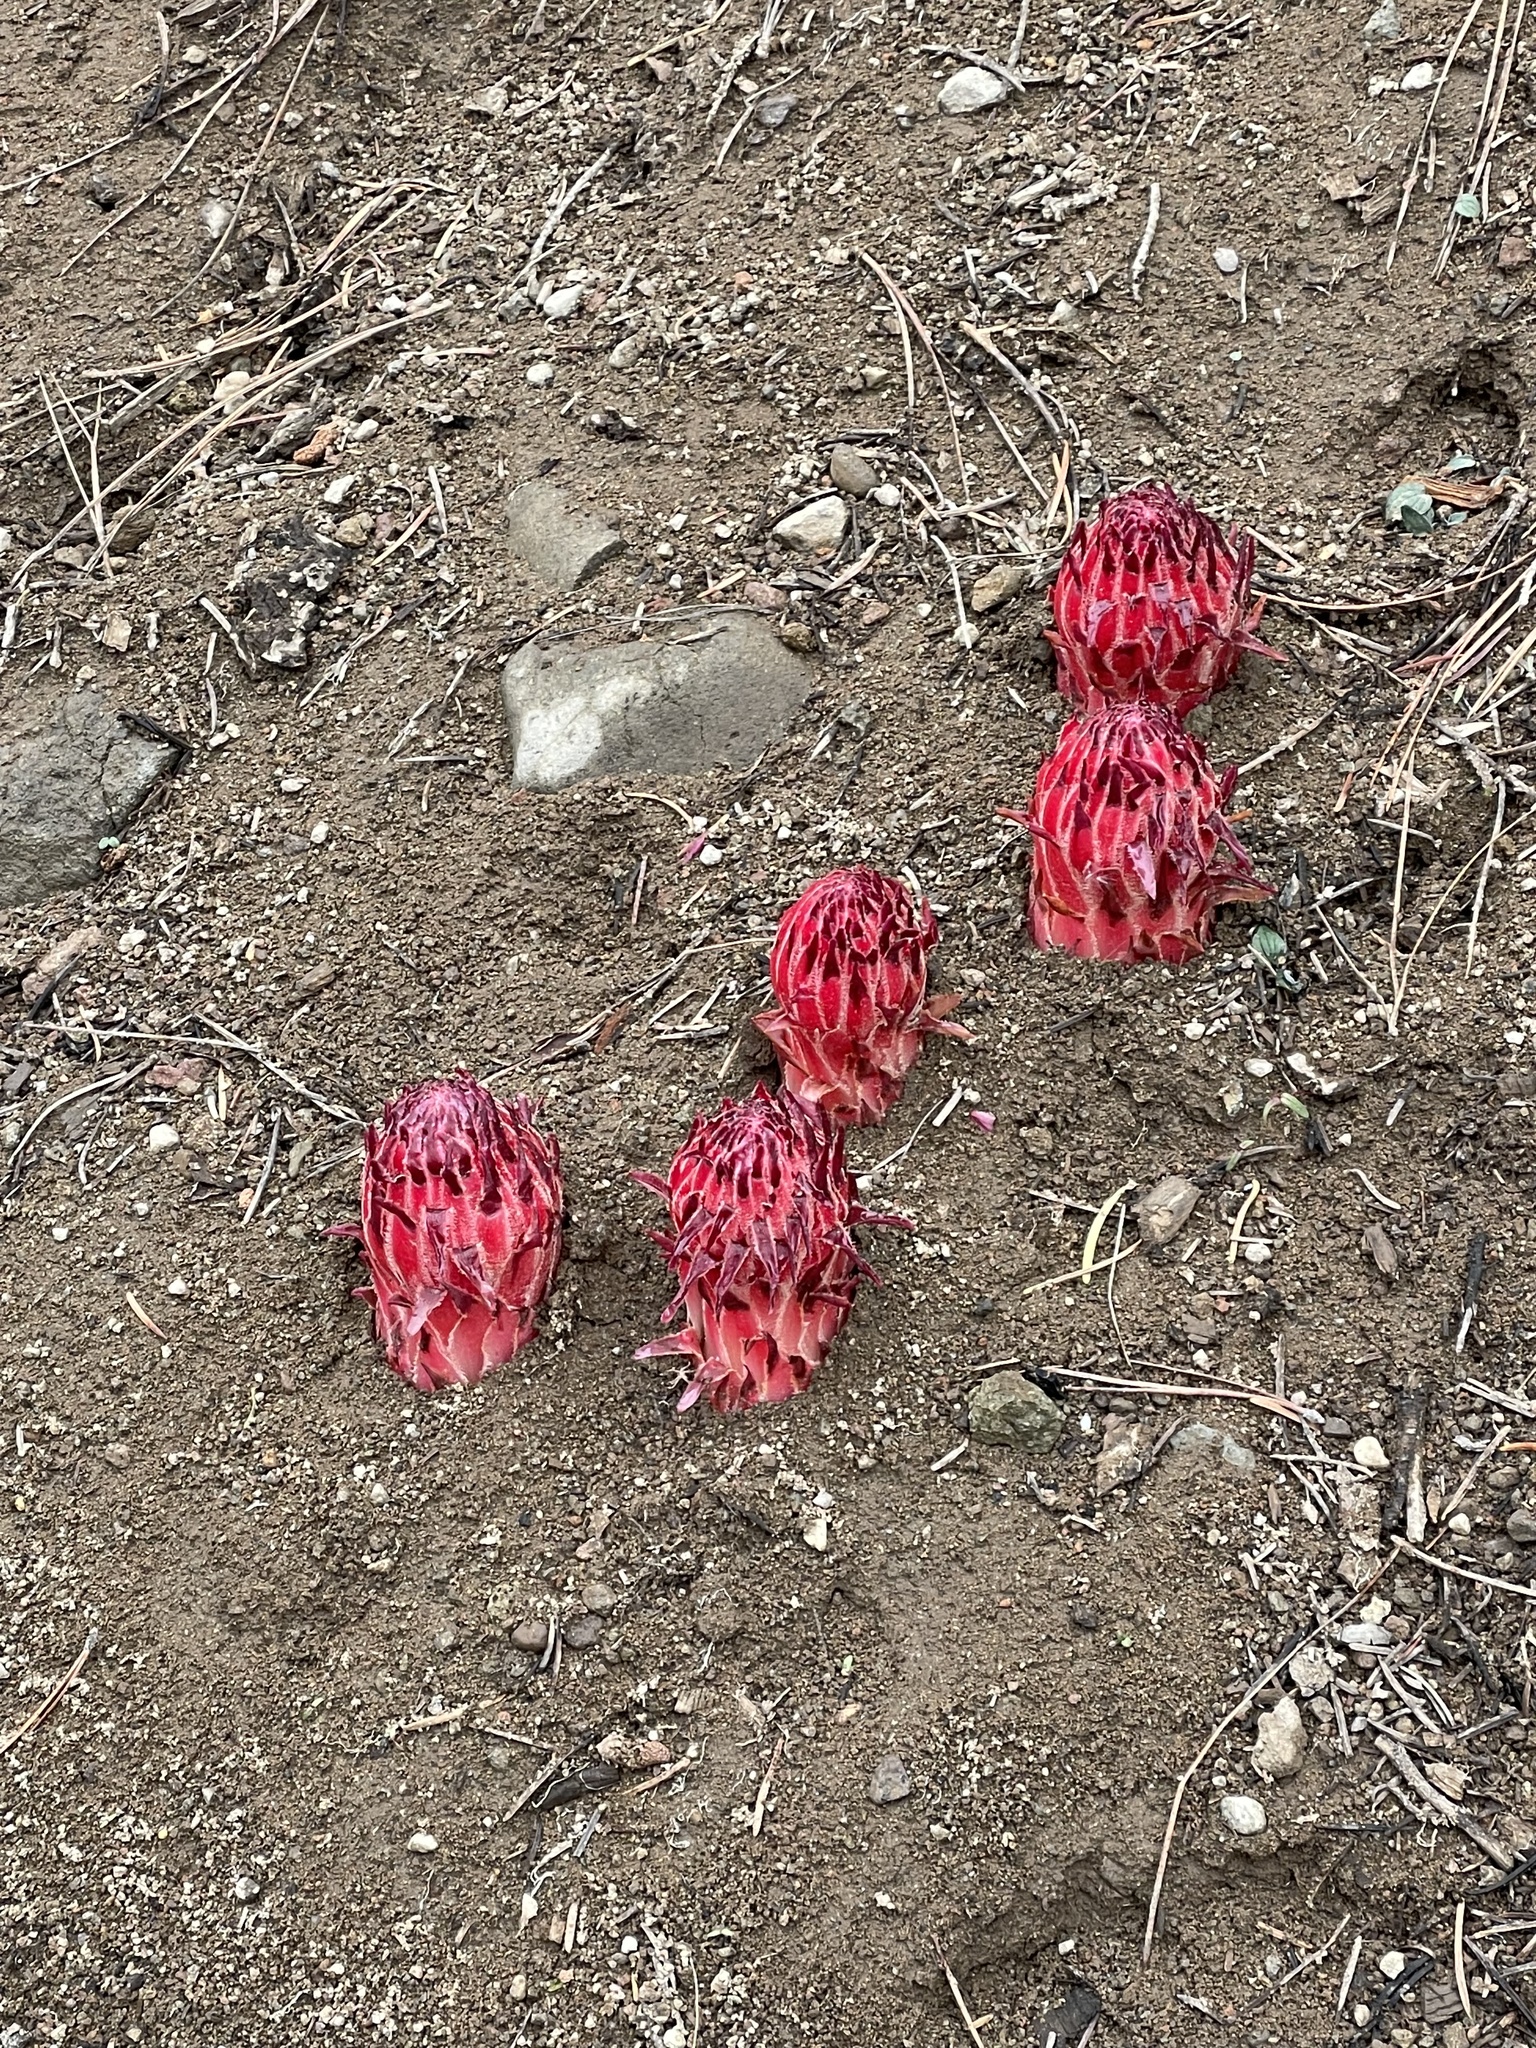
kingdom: Plantae
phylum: Tracheophyta
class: Magnoliopsida
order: Ericales
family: Ericaceae
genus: Sarcodes
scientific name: Sarcodes sanguinea
